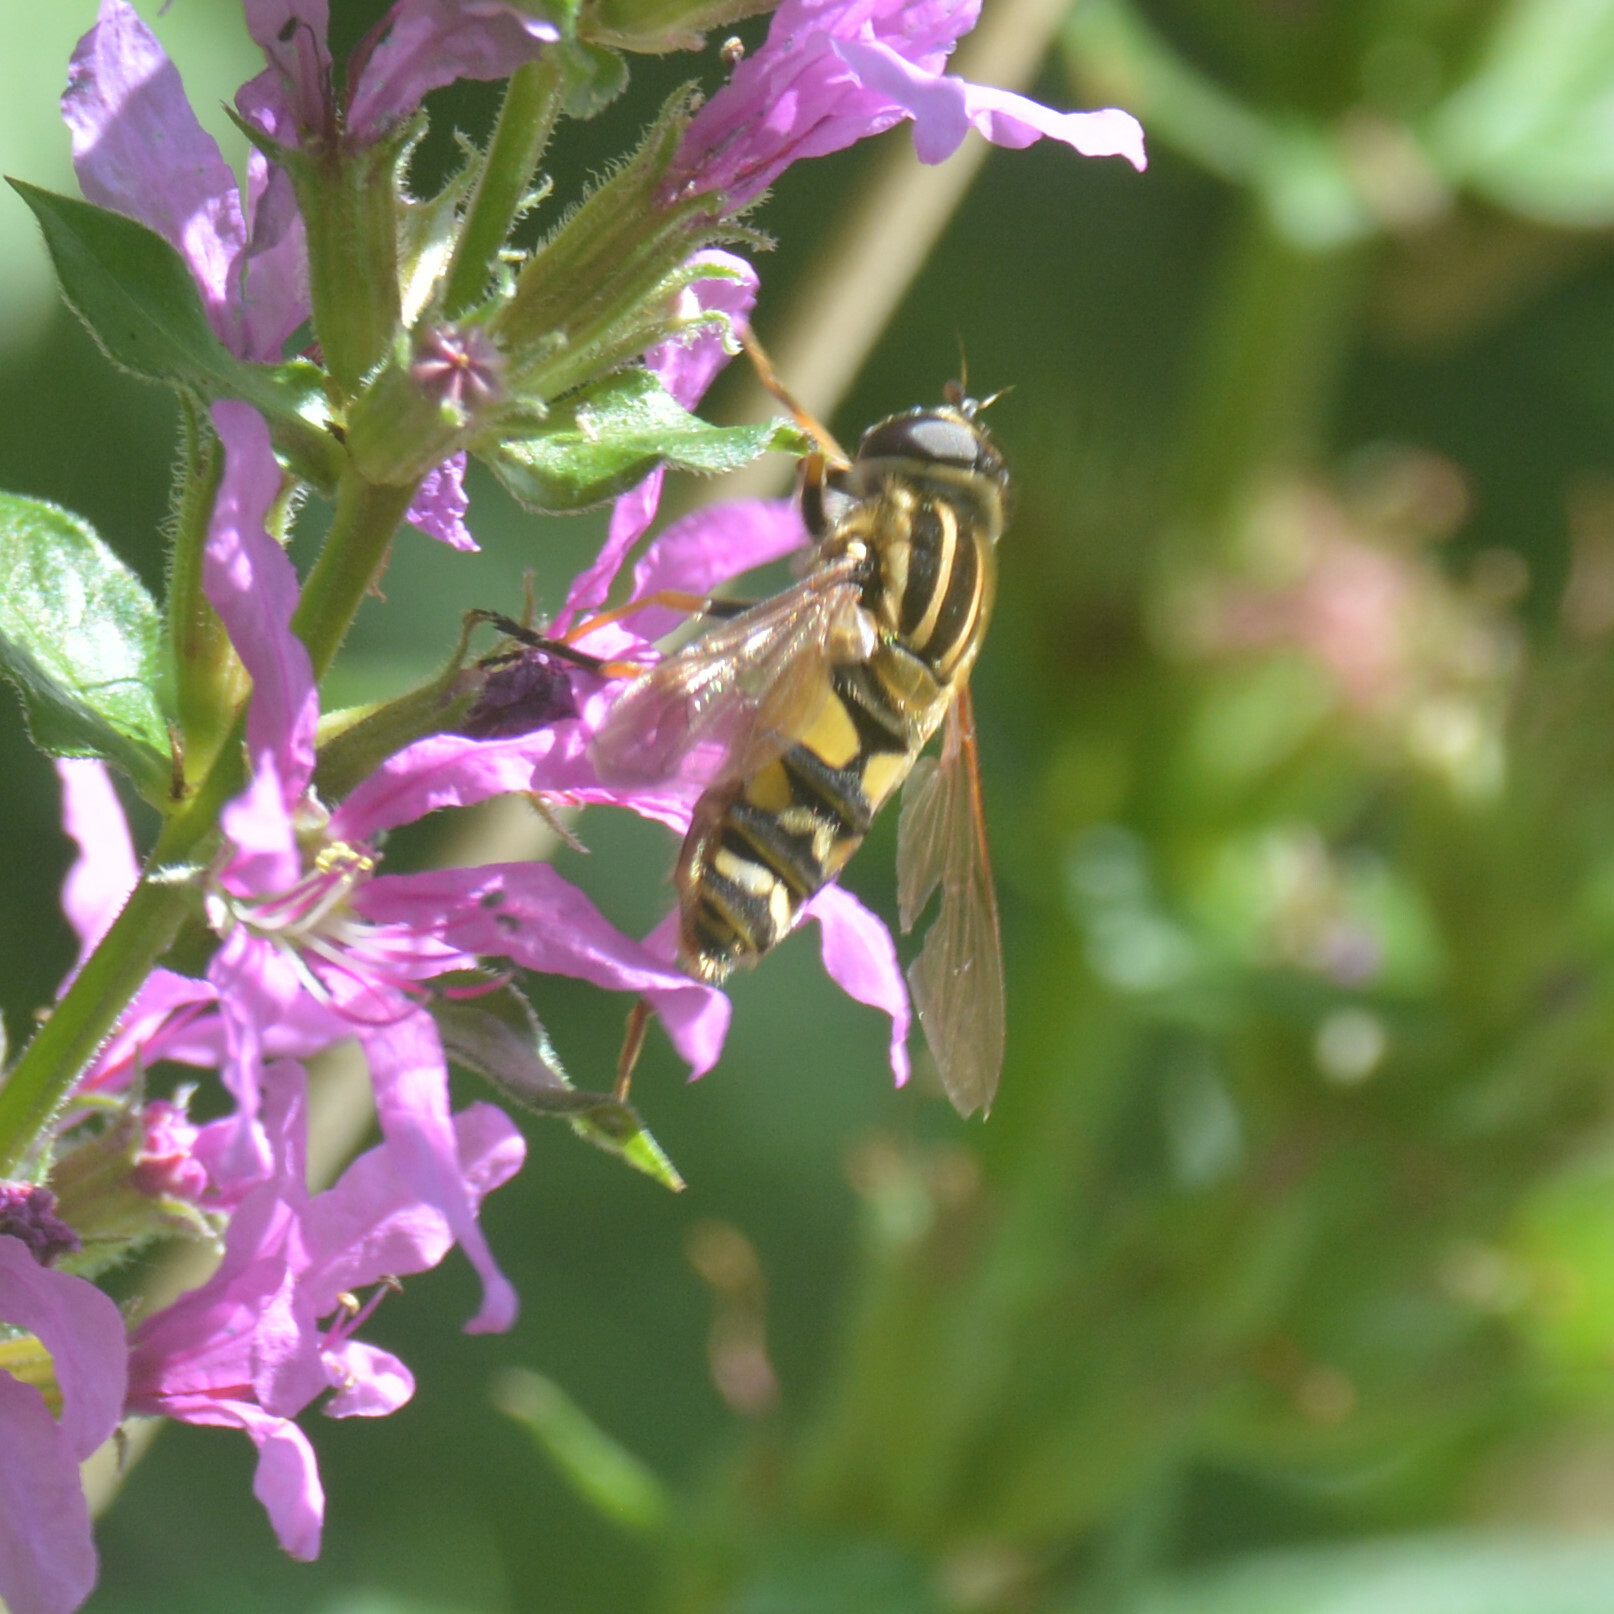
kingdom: Animalia
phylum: Arthropoda
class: Insecta
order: Diptera
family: Syrphidae
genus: Helophilus
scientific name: Helophilus pendulus
